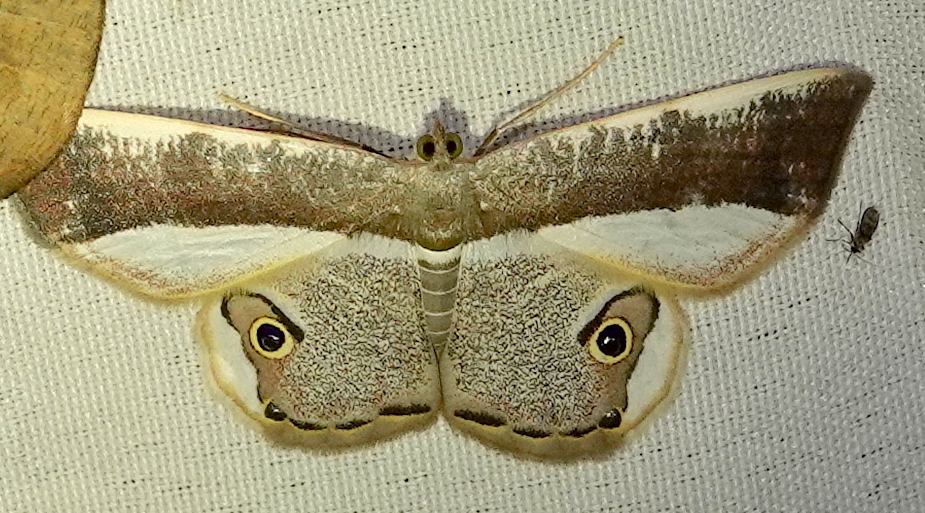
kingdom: Animalia
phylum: Arthropoda
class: Insecta
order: Lepidoptera
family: Geometridae
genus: Opisthoxia
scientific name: Opisthoxia amabilis
